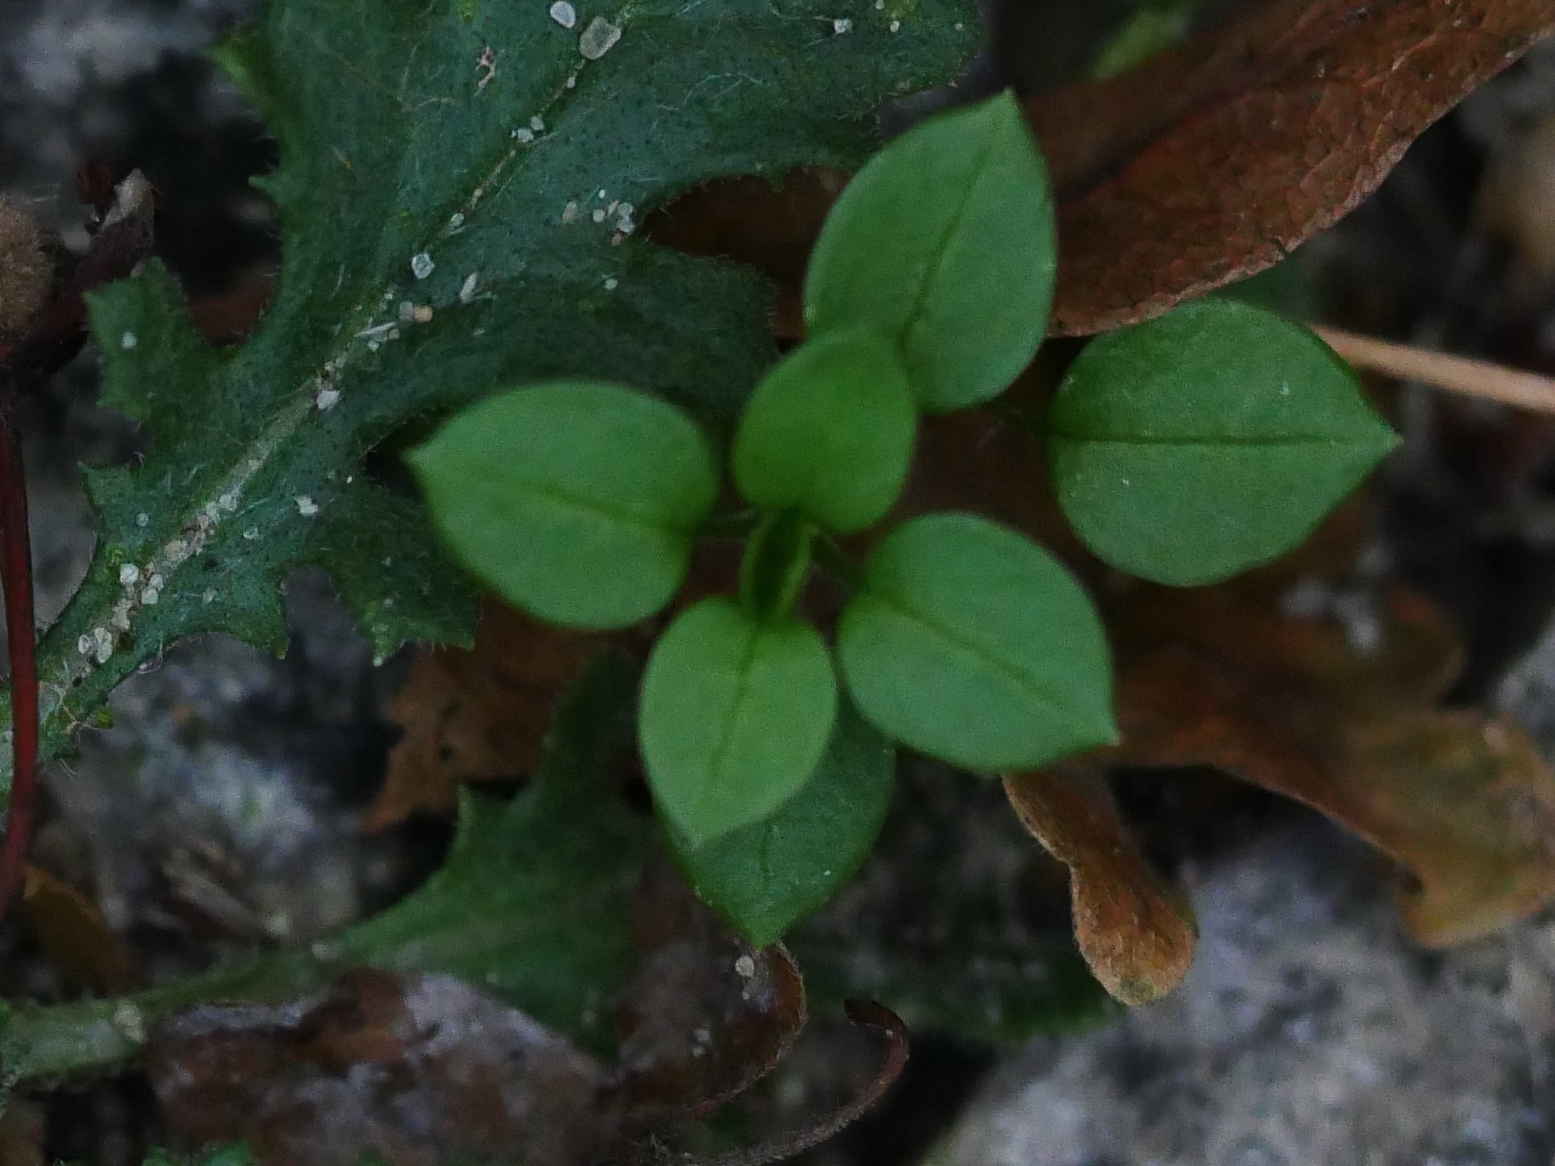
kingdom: Plantae
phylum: Tracheophyta
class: Magnoliopsida
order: Caryophyllales
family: Caryophyllaceae
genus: Stellaria
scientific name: Stellaria media
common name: Common chickweed
